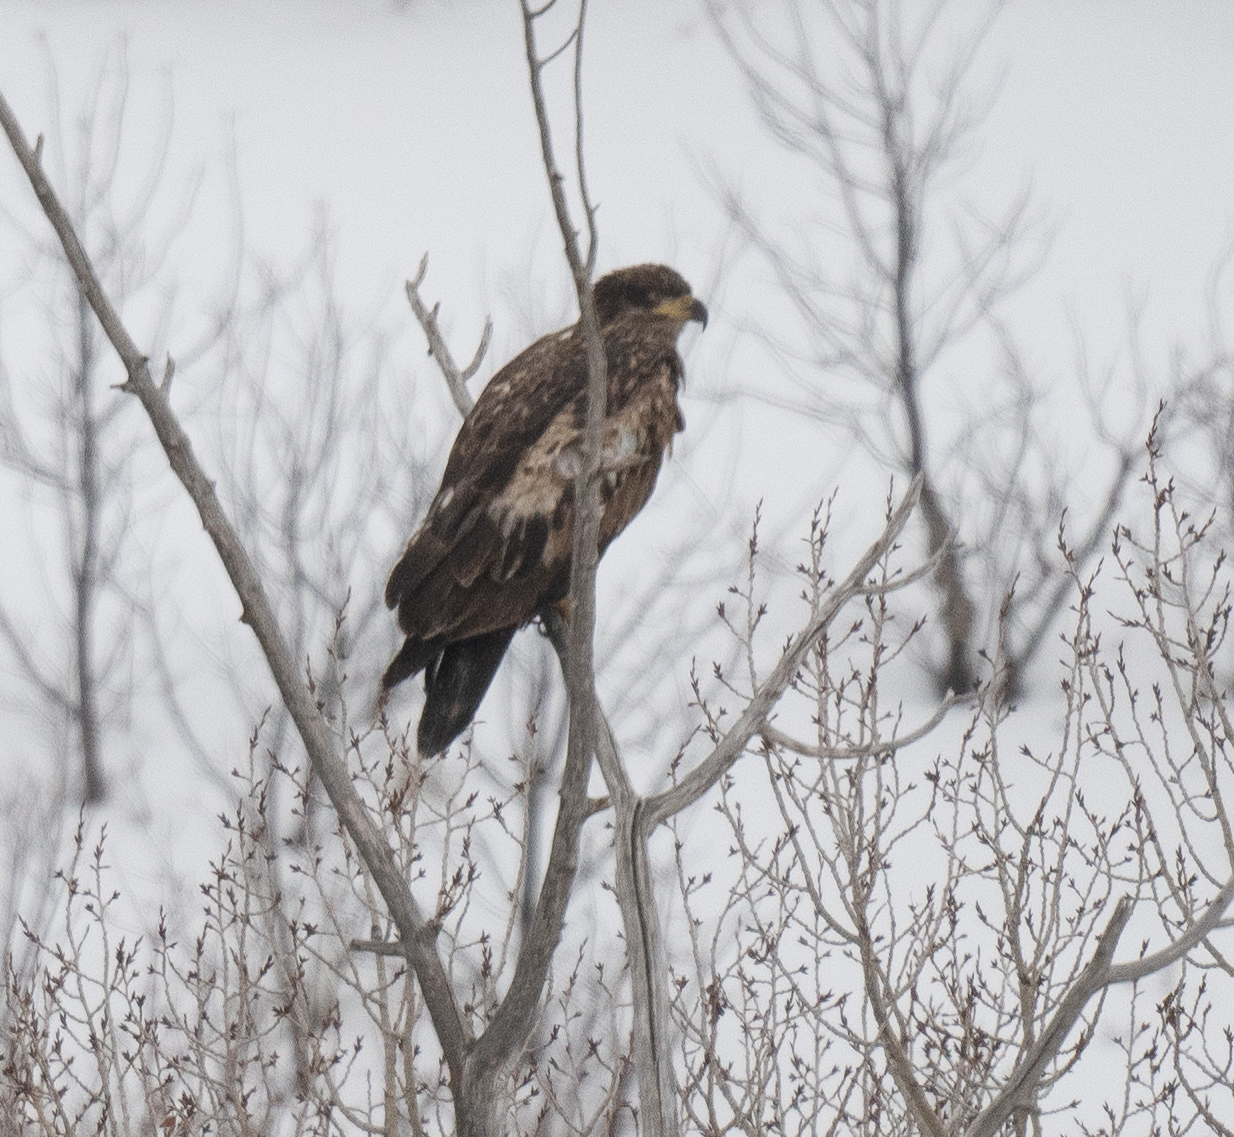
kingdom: Animalia
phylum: Chordata
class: Aves
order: Accipitriformes
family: Accipitridae
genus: Haliaeetus
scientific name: Haliaeetus leucocephalus
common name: Bald eagle
